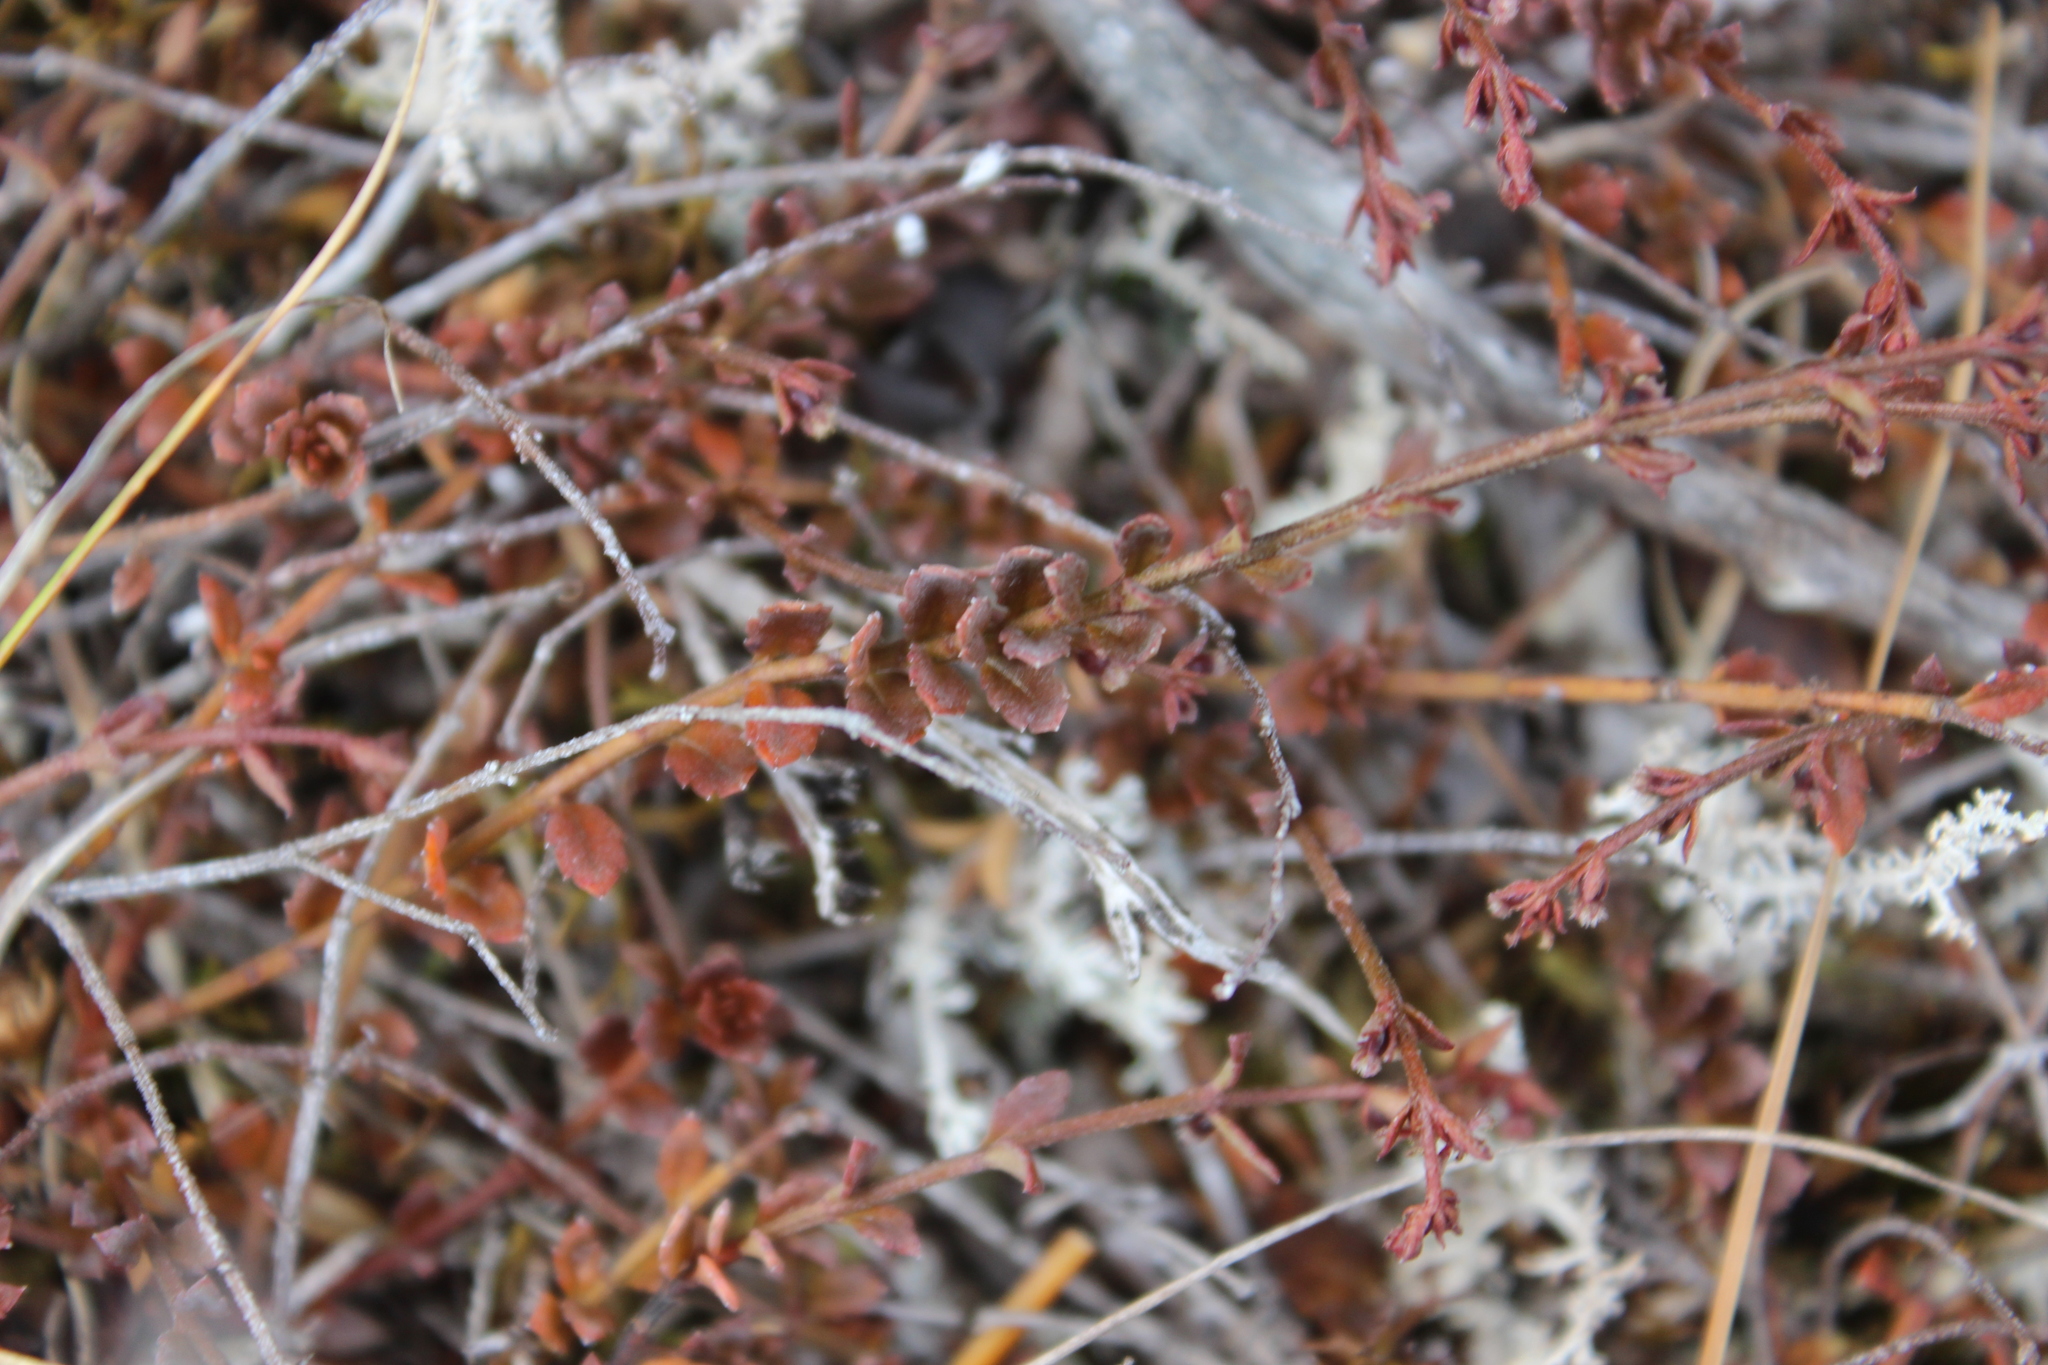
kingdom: Plantae
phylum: Tracheophyta
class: Magnoliopsida
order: Saxifragales
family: Haloragaceae
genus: Gonocarpus
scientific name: Gonocarpus incanus
